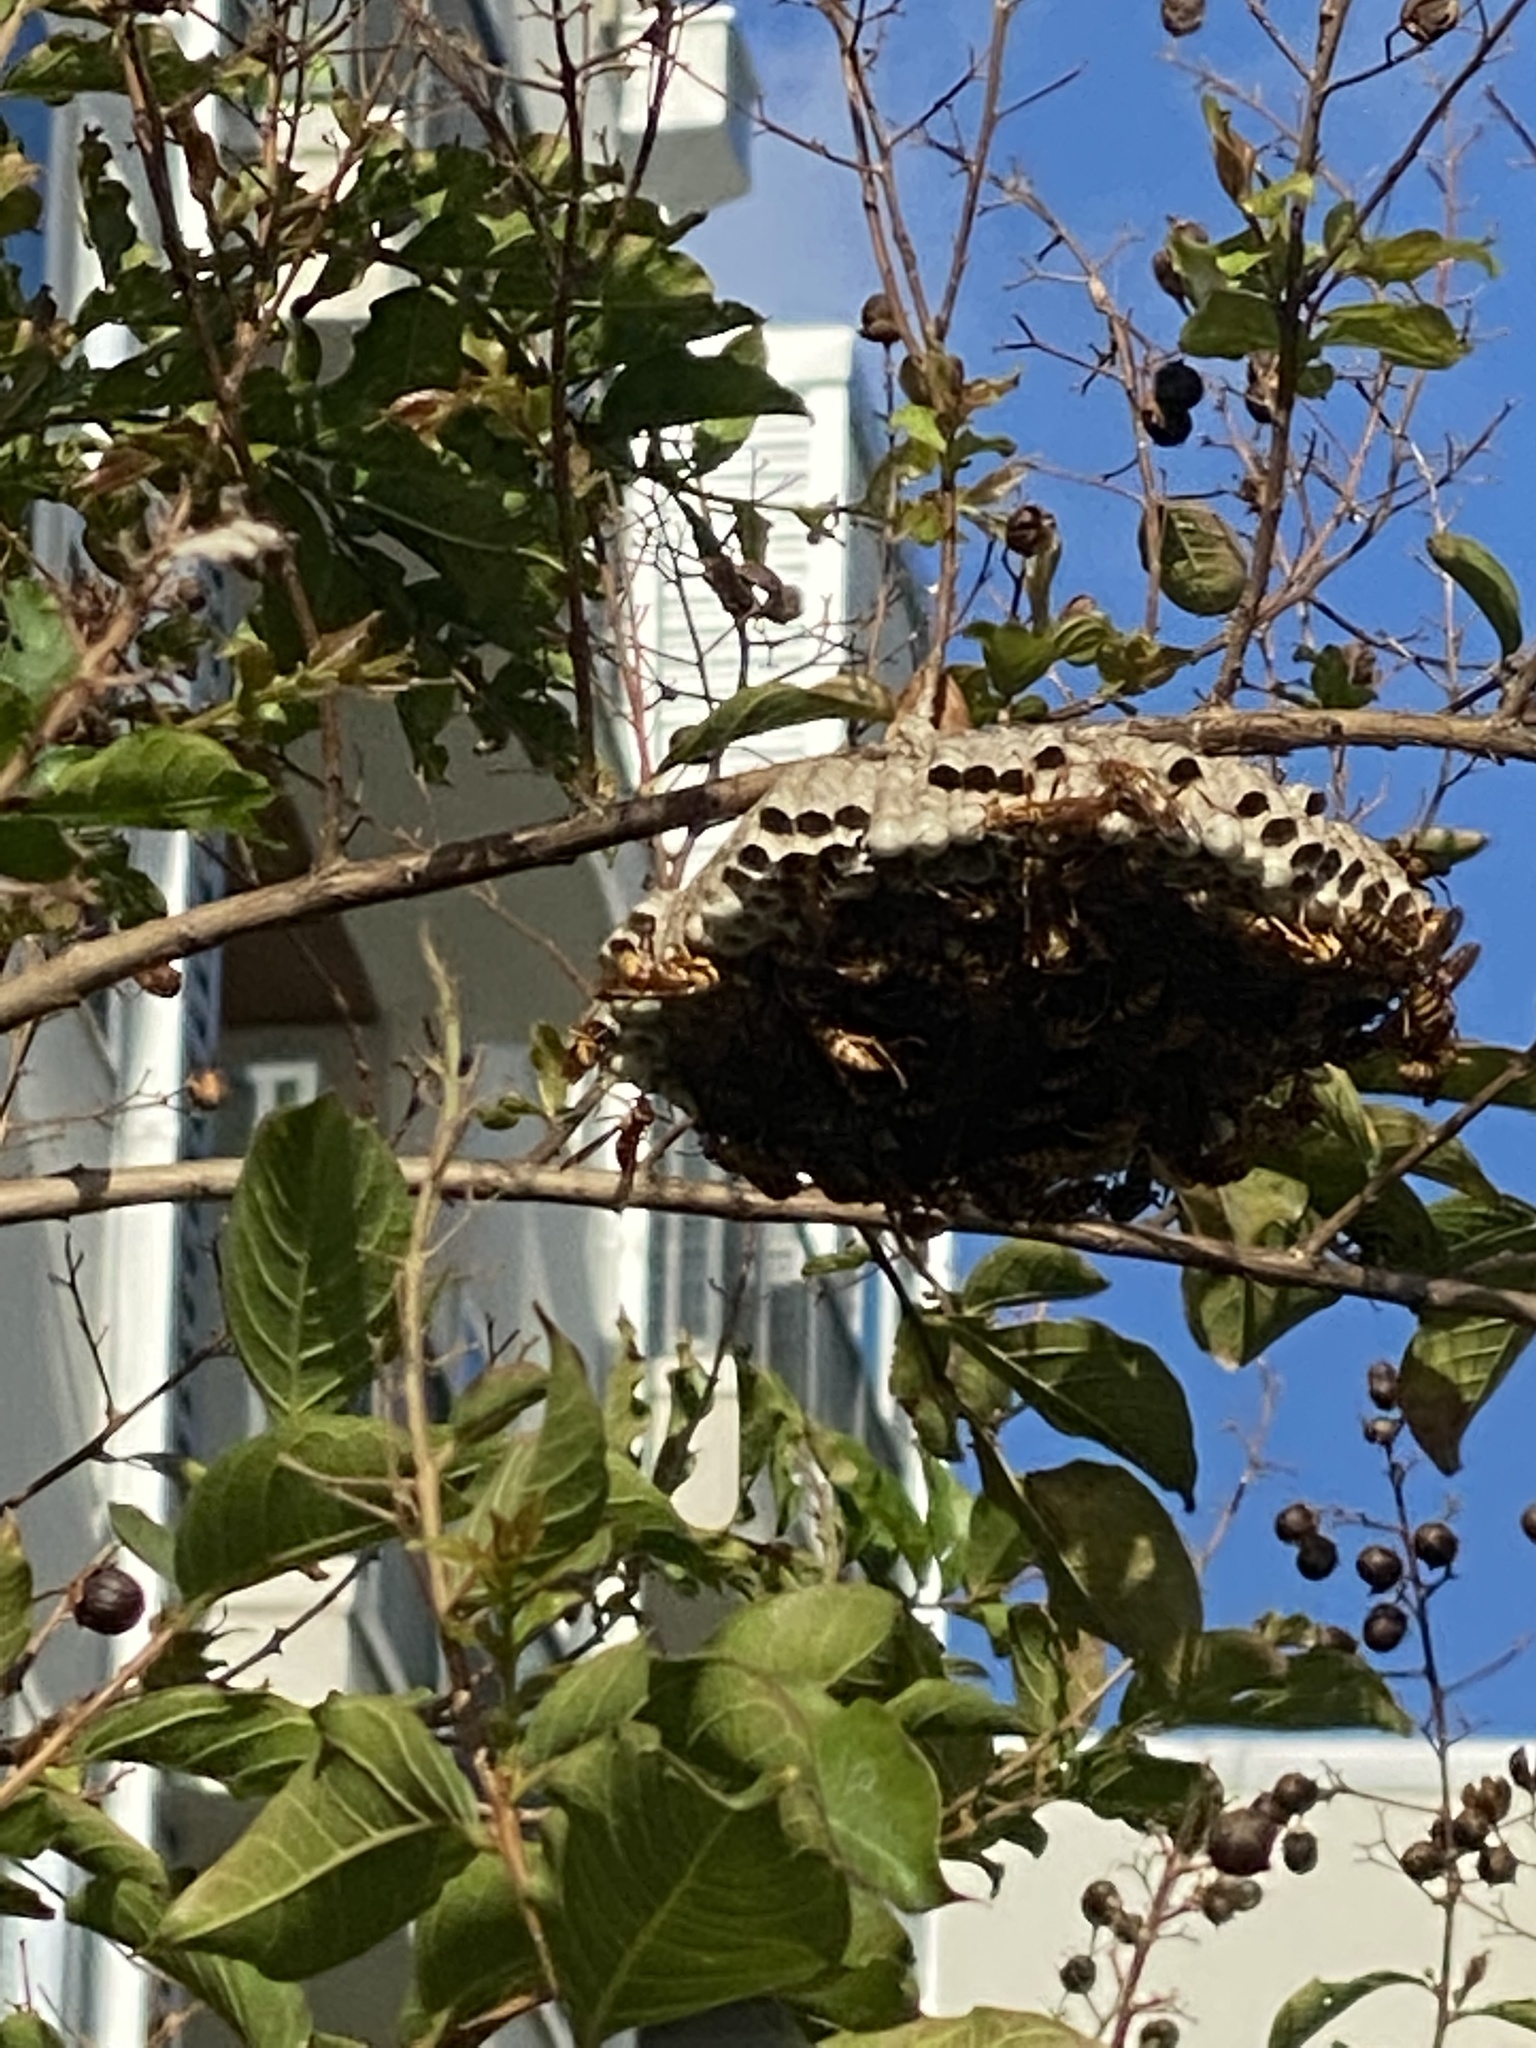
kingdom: Animalia
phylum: Arthropoda
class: Insecta
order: Hymenoptera
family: Eumenidae
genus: Polistes
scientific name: Polistes apachus
